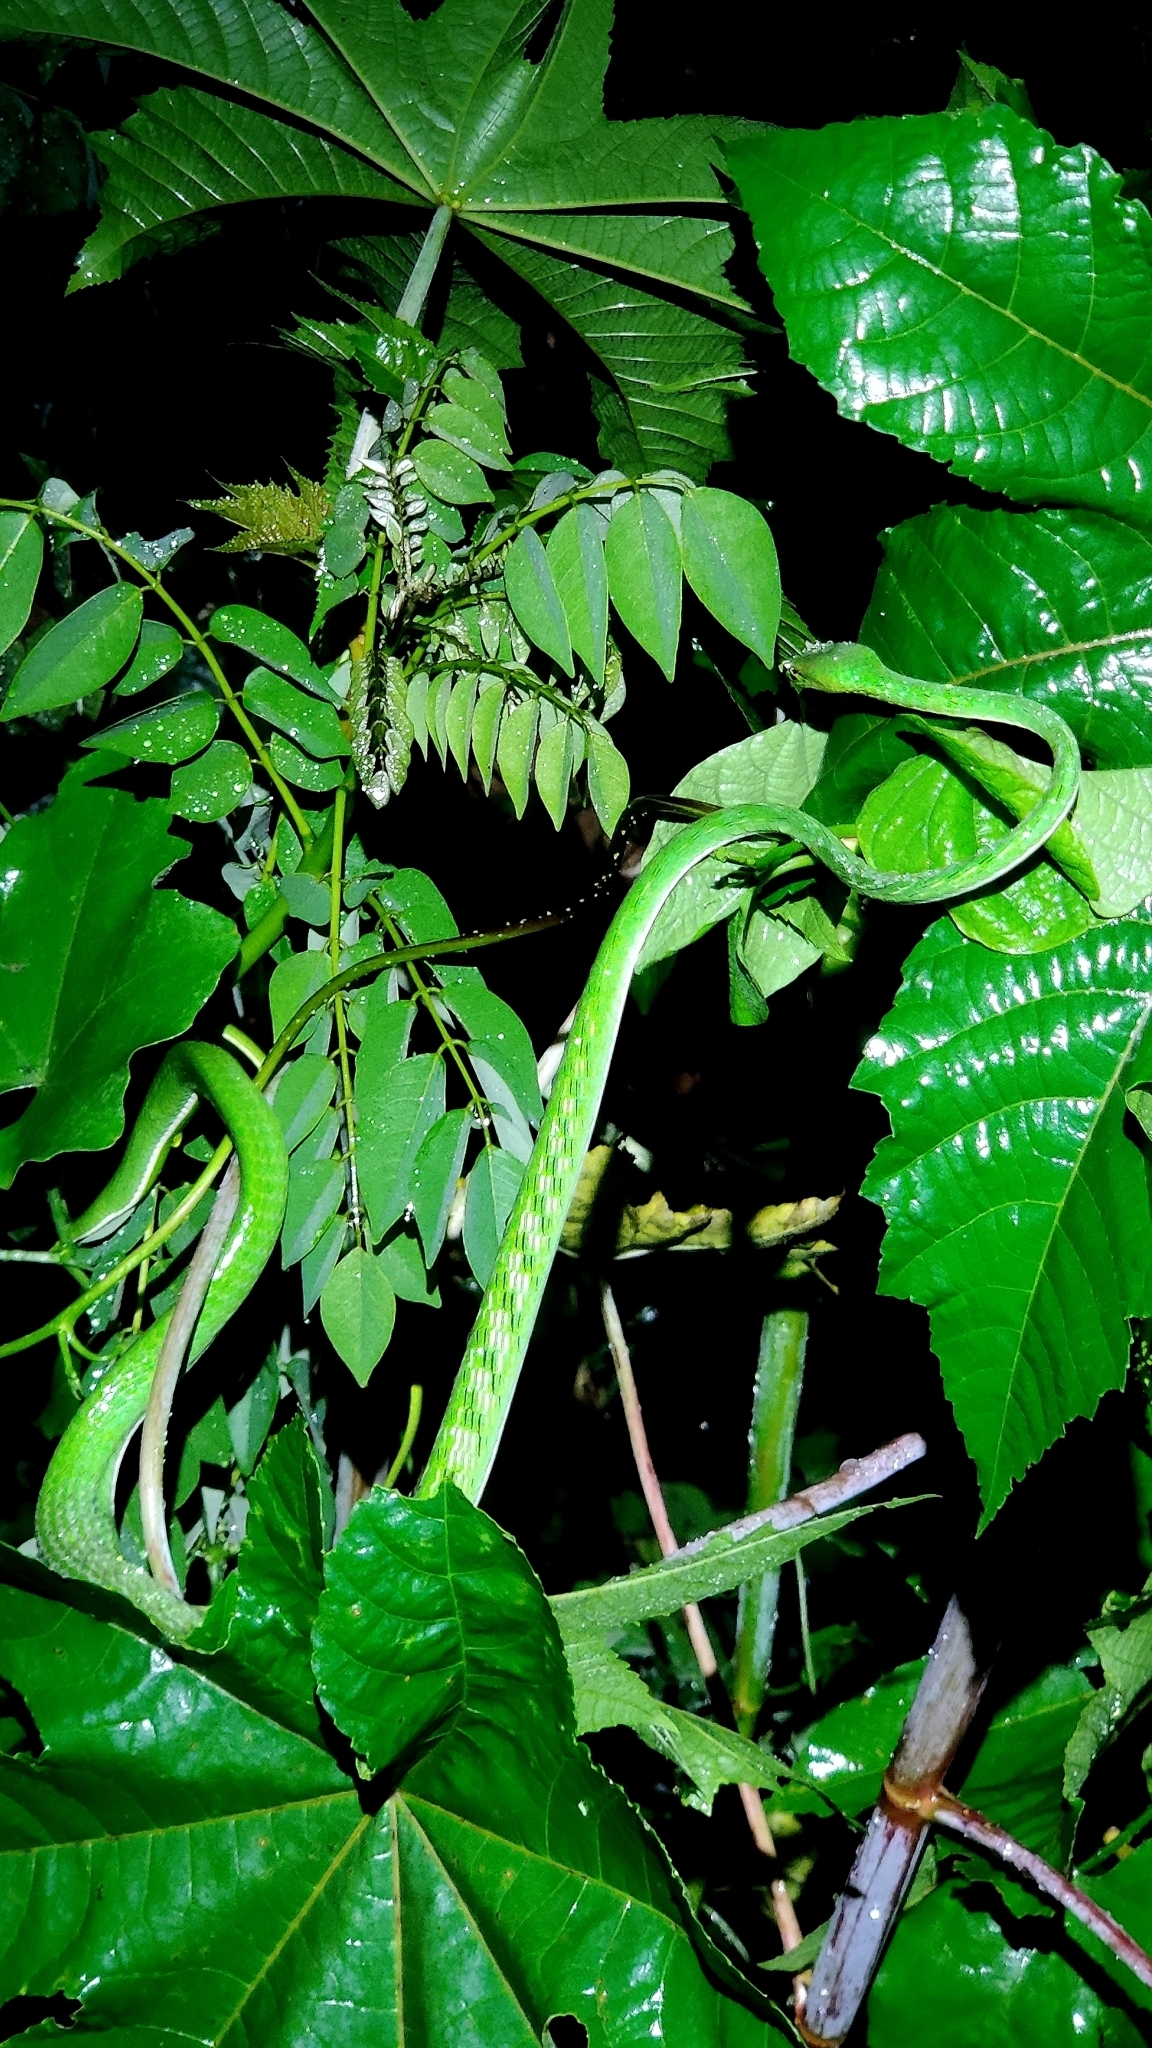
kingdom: Animalia
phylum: Chordata
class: Squamata
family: Colubridae
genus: Ahaetulla
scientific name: Ahaetulla oxyrhyncha
